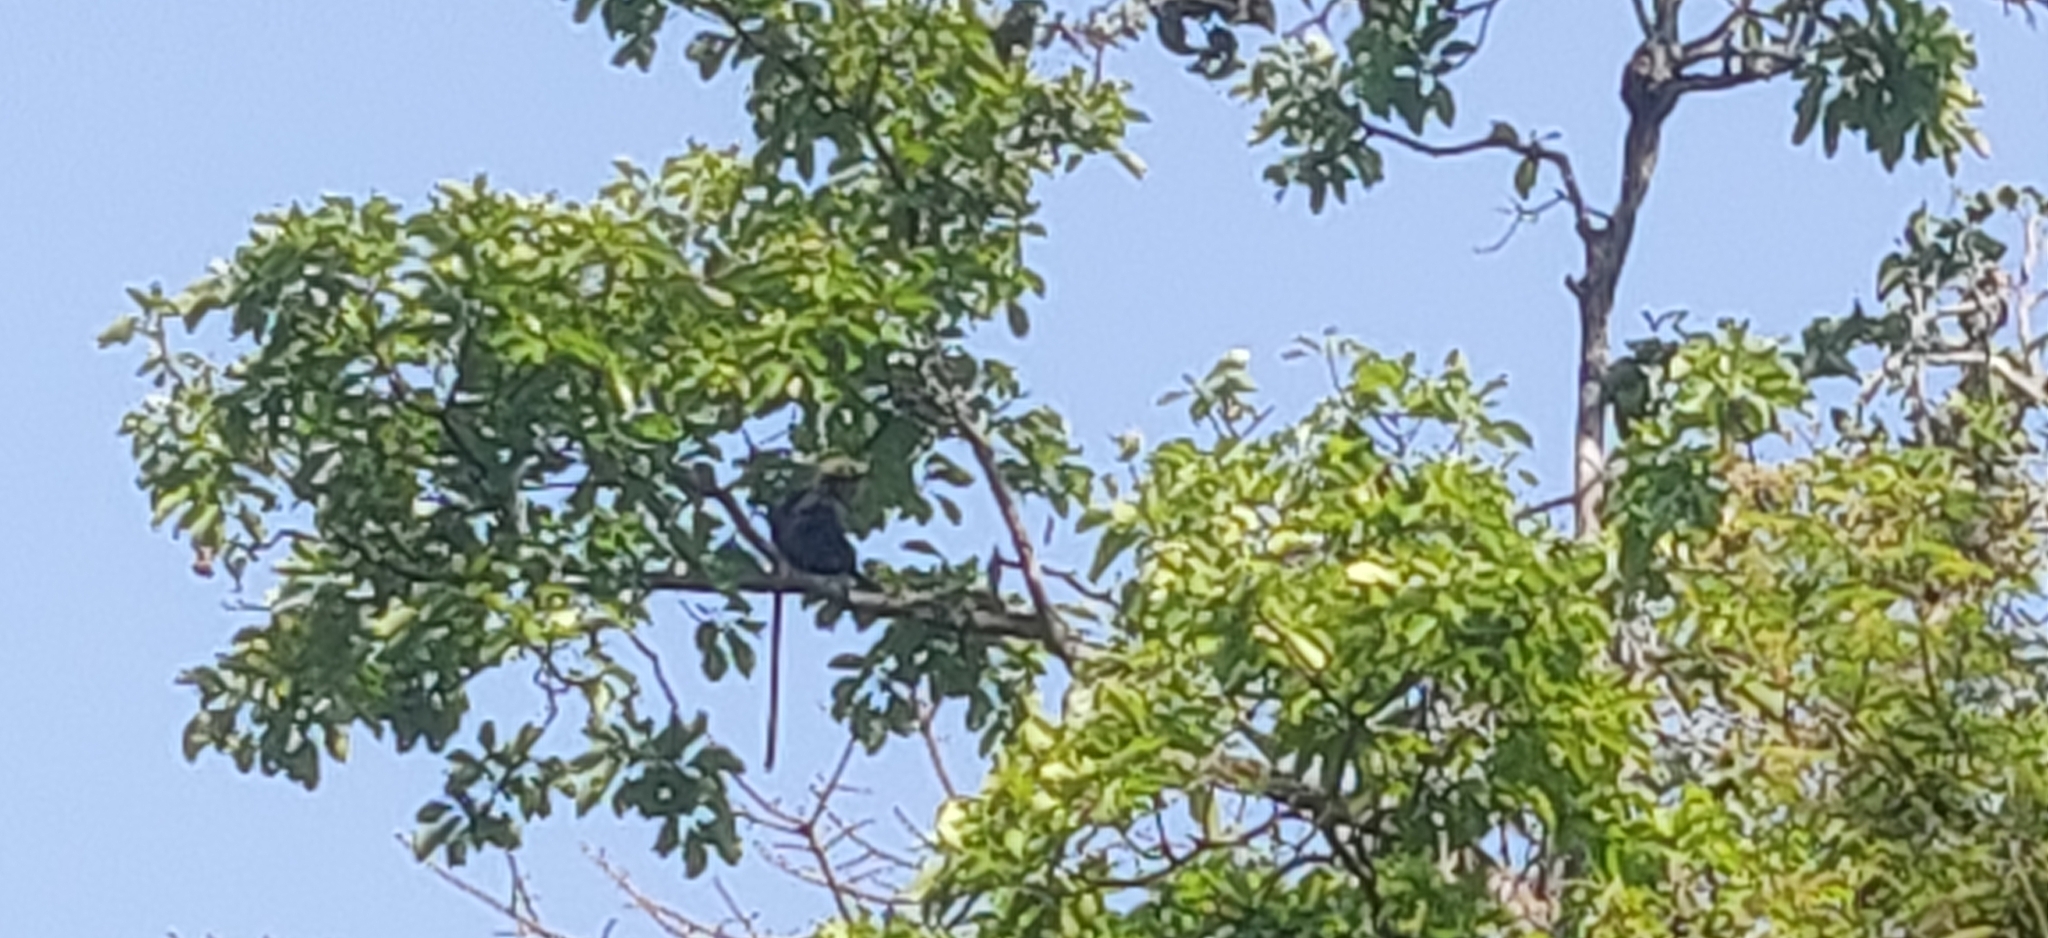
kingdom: Animalia
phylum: Chordata
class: Mammalia
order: Primates
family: Cercopithecidae
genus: Semnopithecus
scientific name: Semnopithecus johnii
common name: Nilgiri langur
